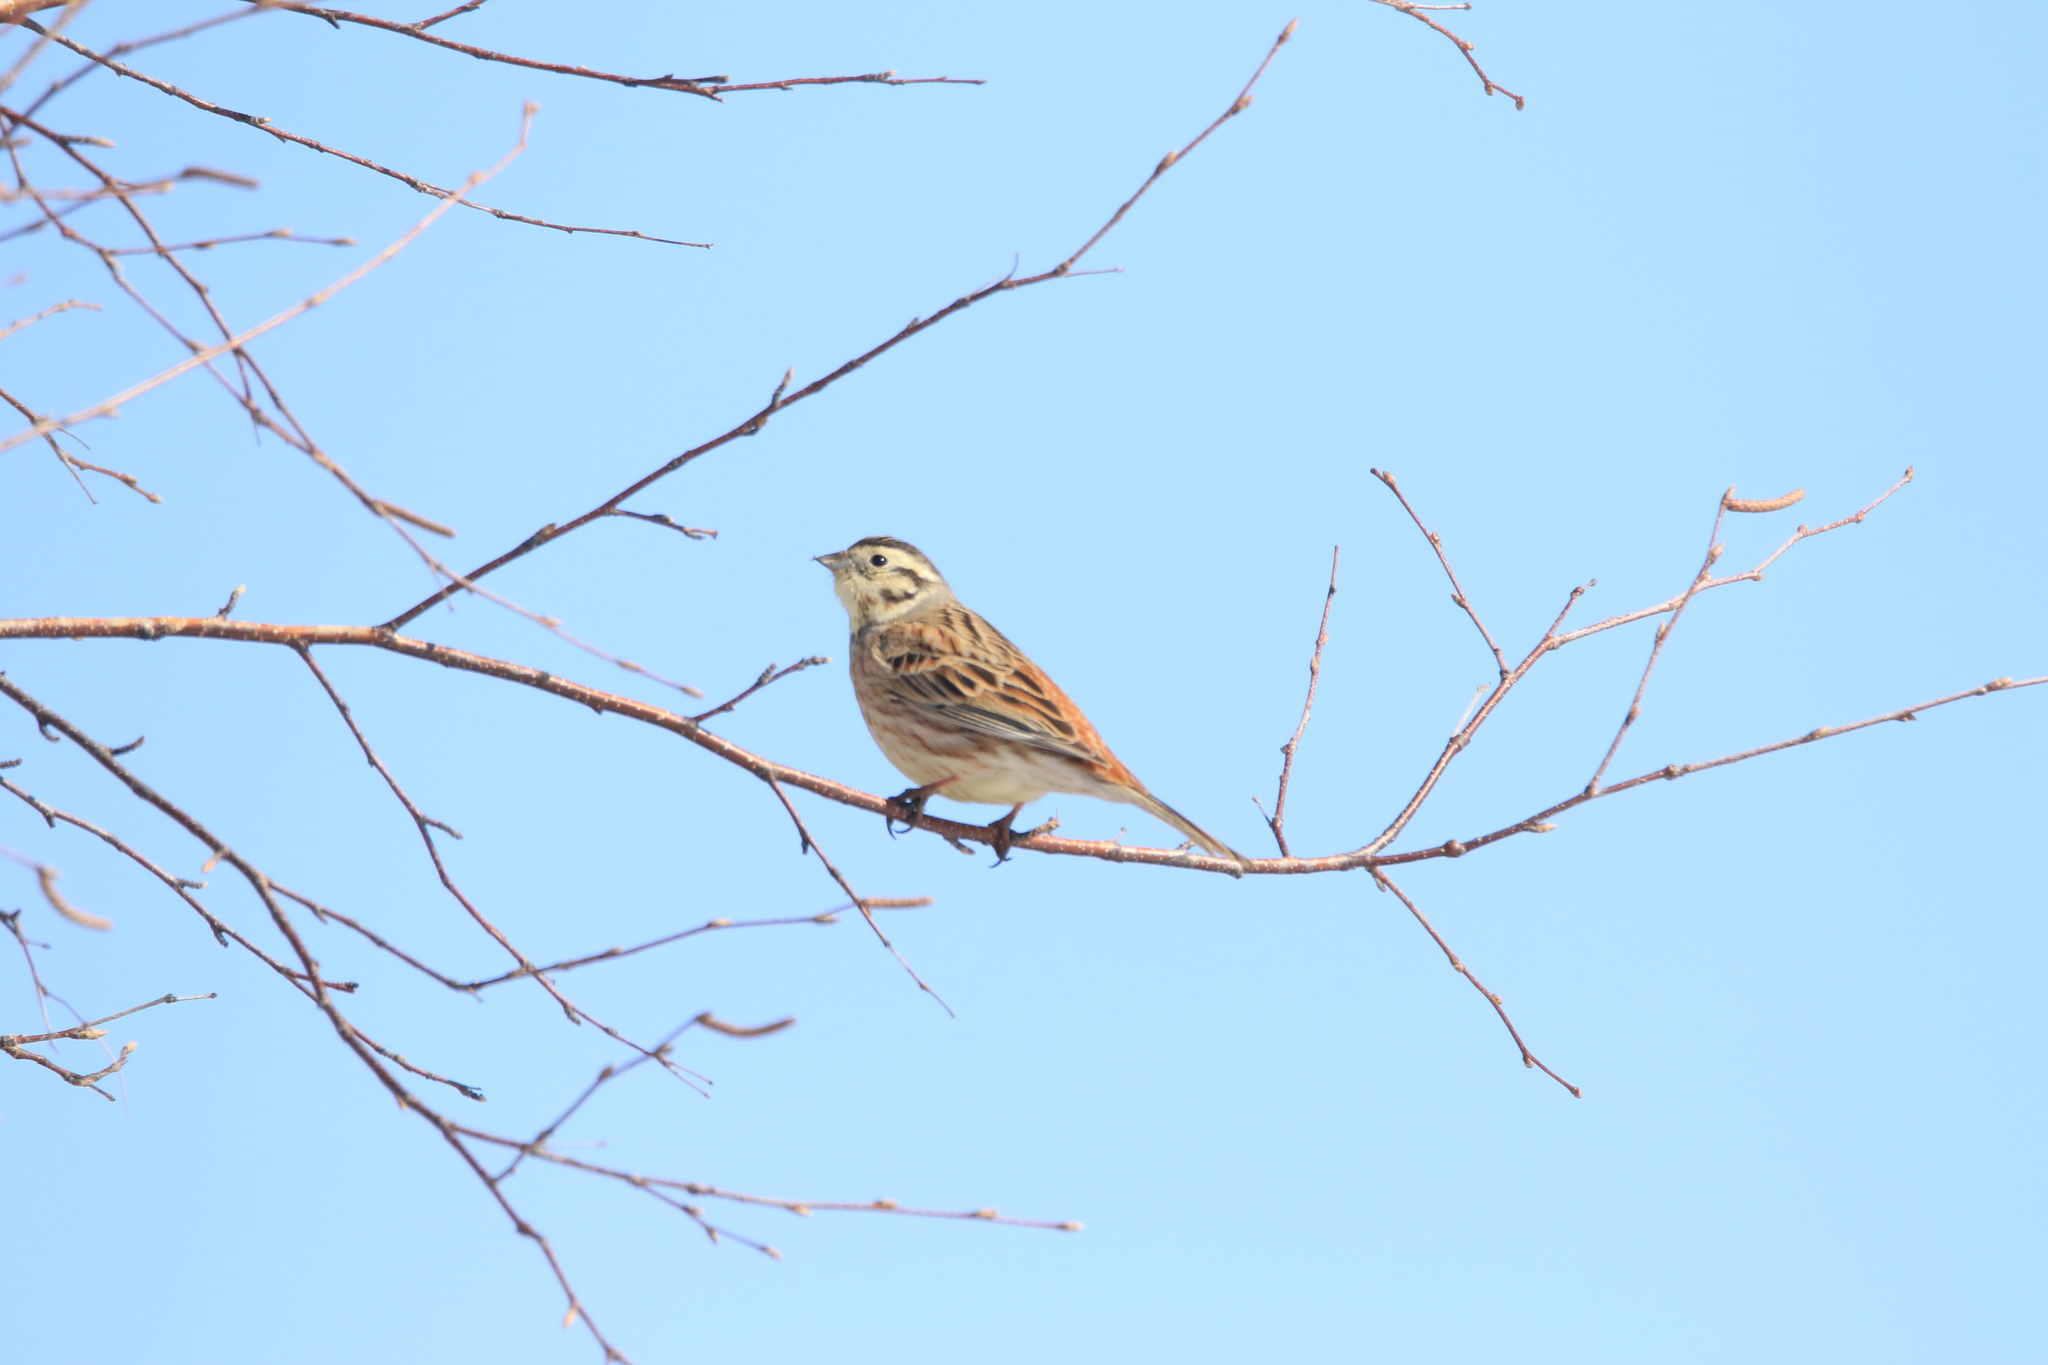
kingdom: Animalia
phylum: Chordata
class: Aves
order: Passeriformes
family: Emberizidae
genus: Emberiza
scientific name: Emberiza
